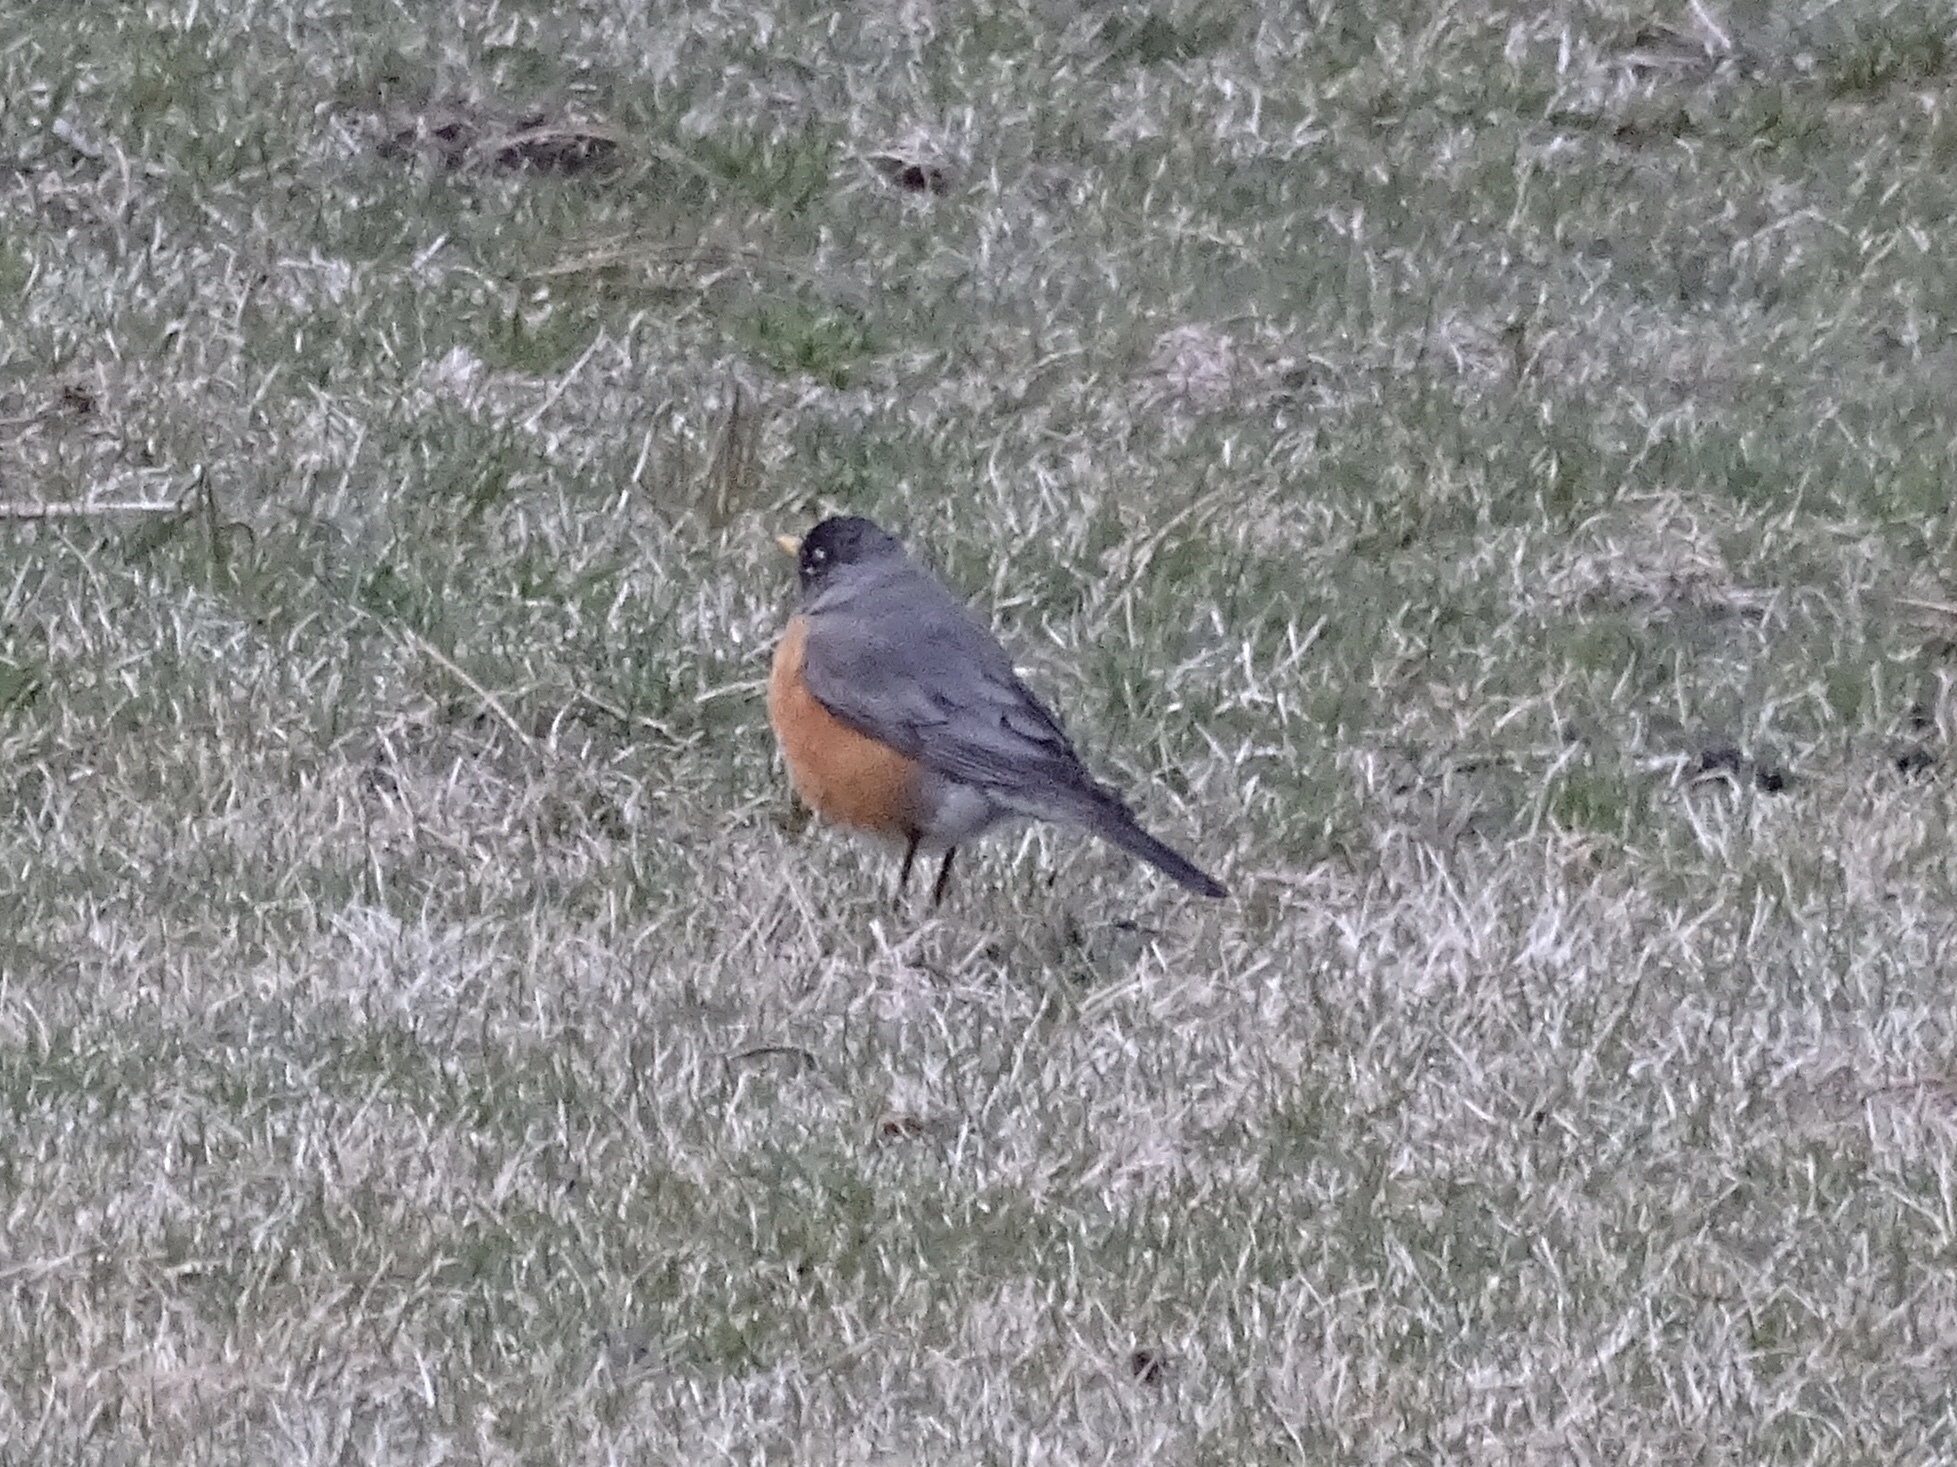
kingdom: Animalia
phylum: Chordata
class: Aves
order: Passeriformes
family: Turdidae
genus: Turdus
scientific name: Turdus migratorius
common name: American robin
